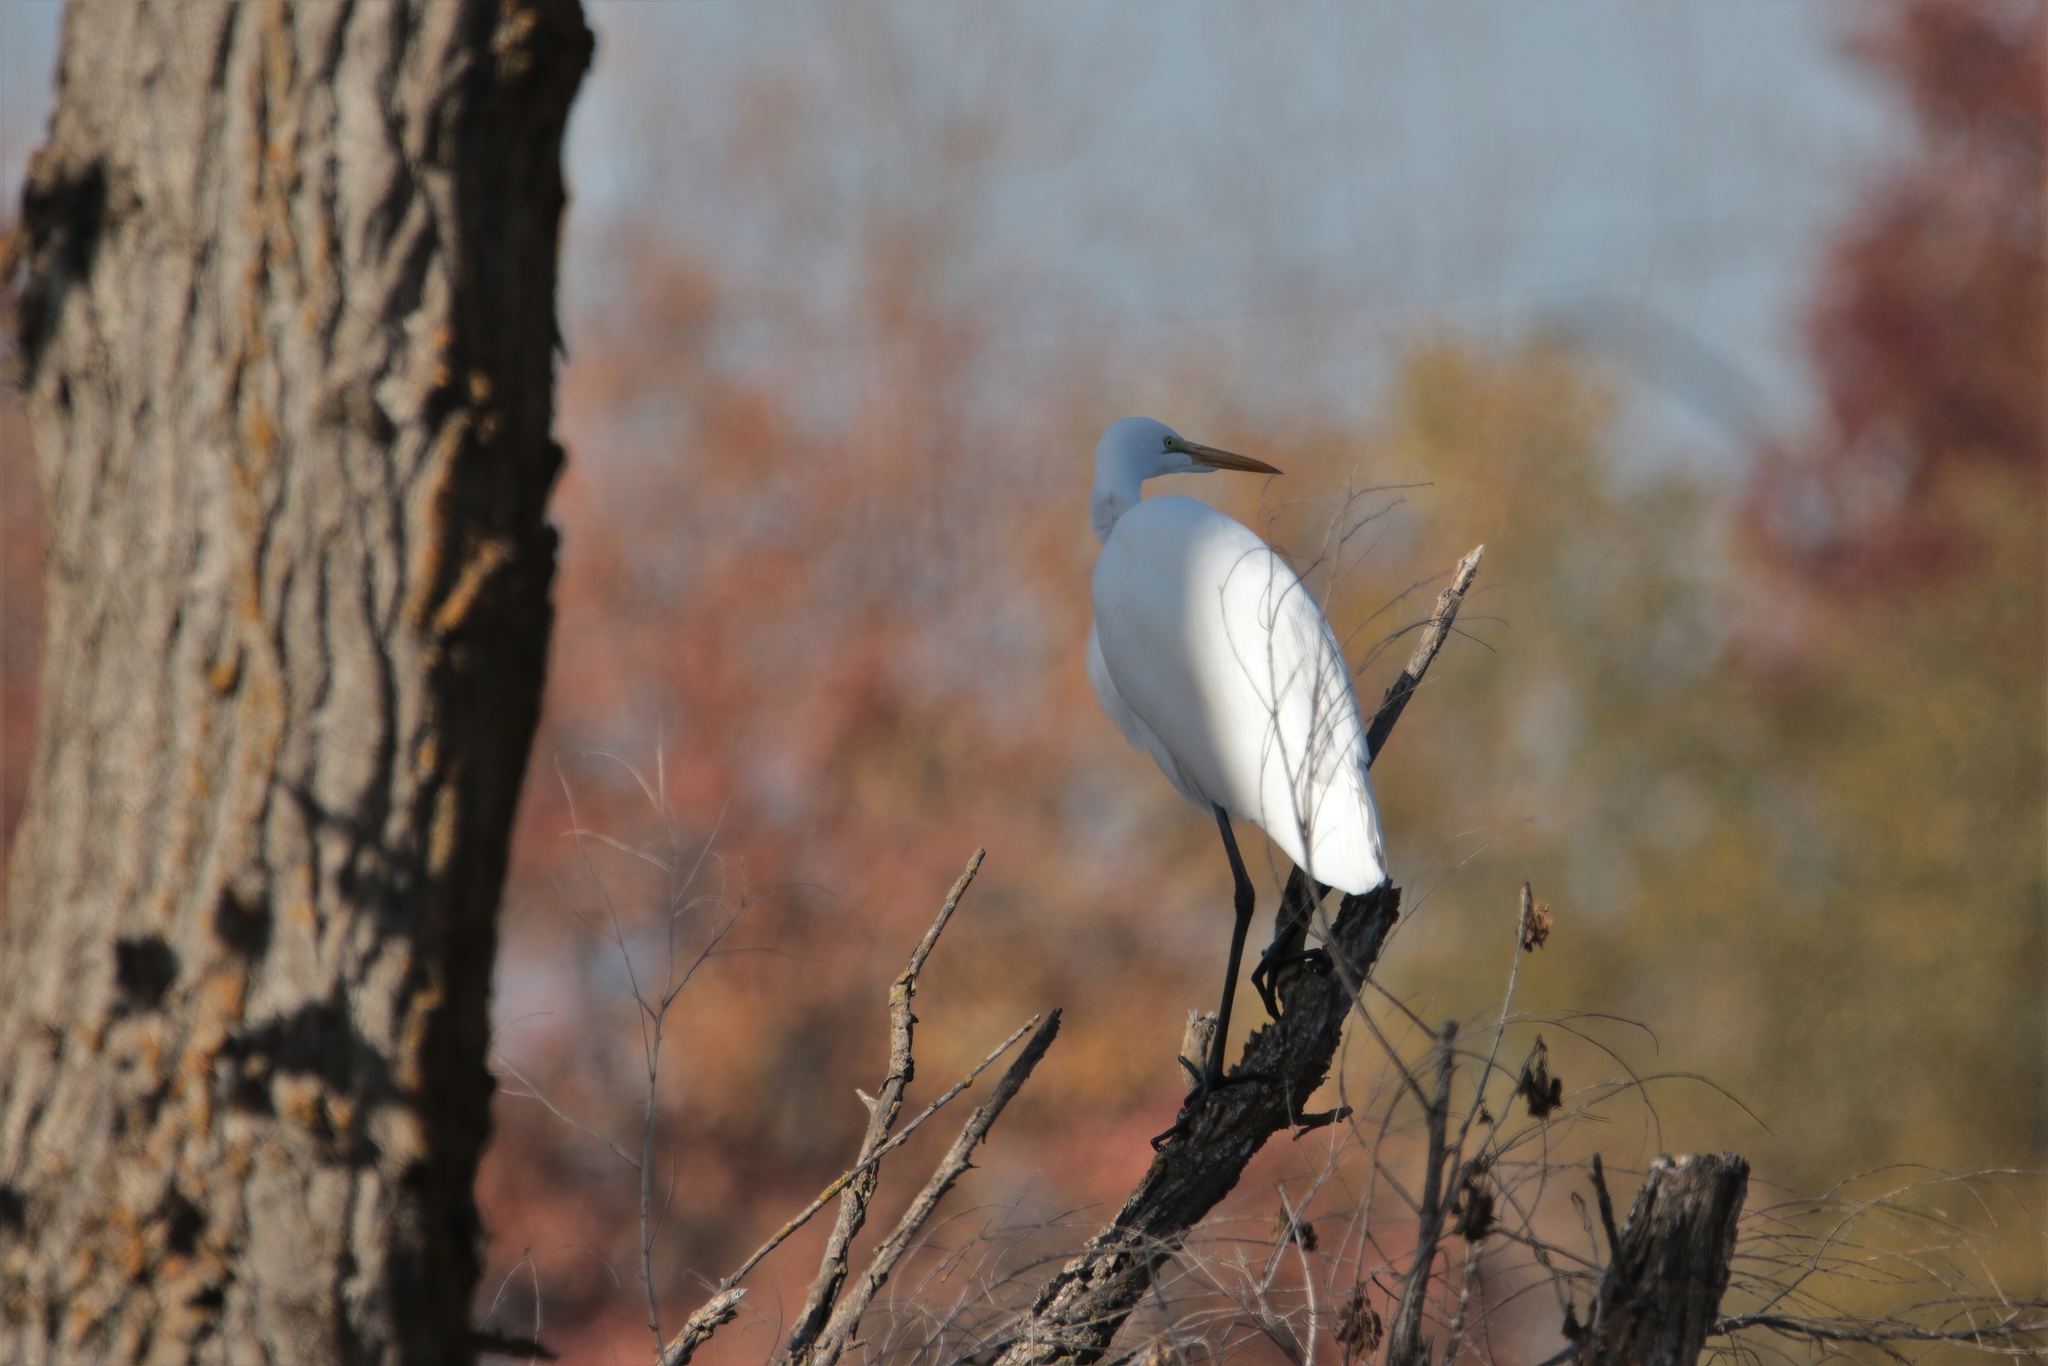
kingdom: Animalia
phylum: Chordata
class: Aves
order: Pelecaniformes
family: Ardeidae
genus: Ardea
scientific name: Ardea alba
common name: Great egret
